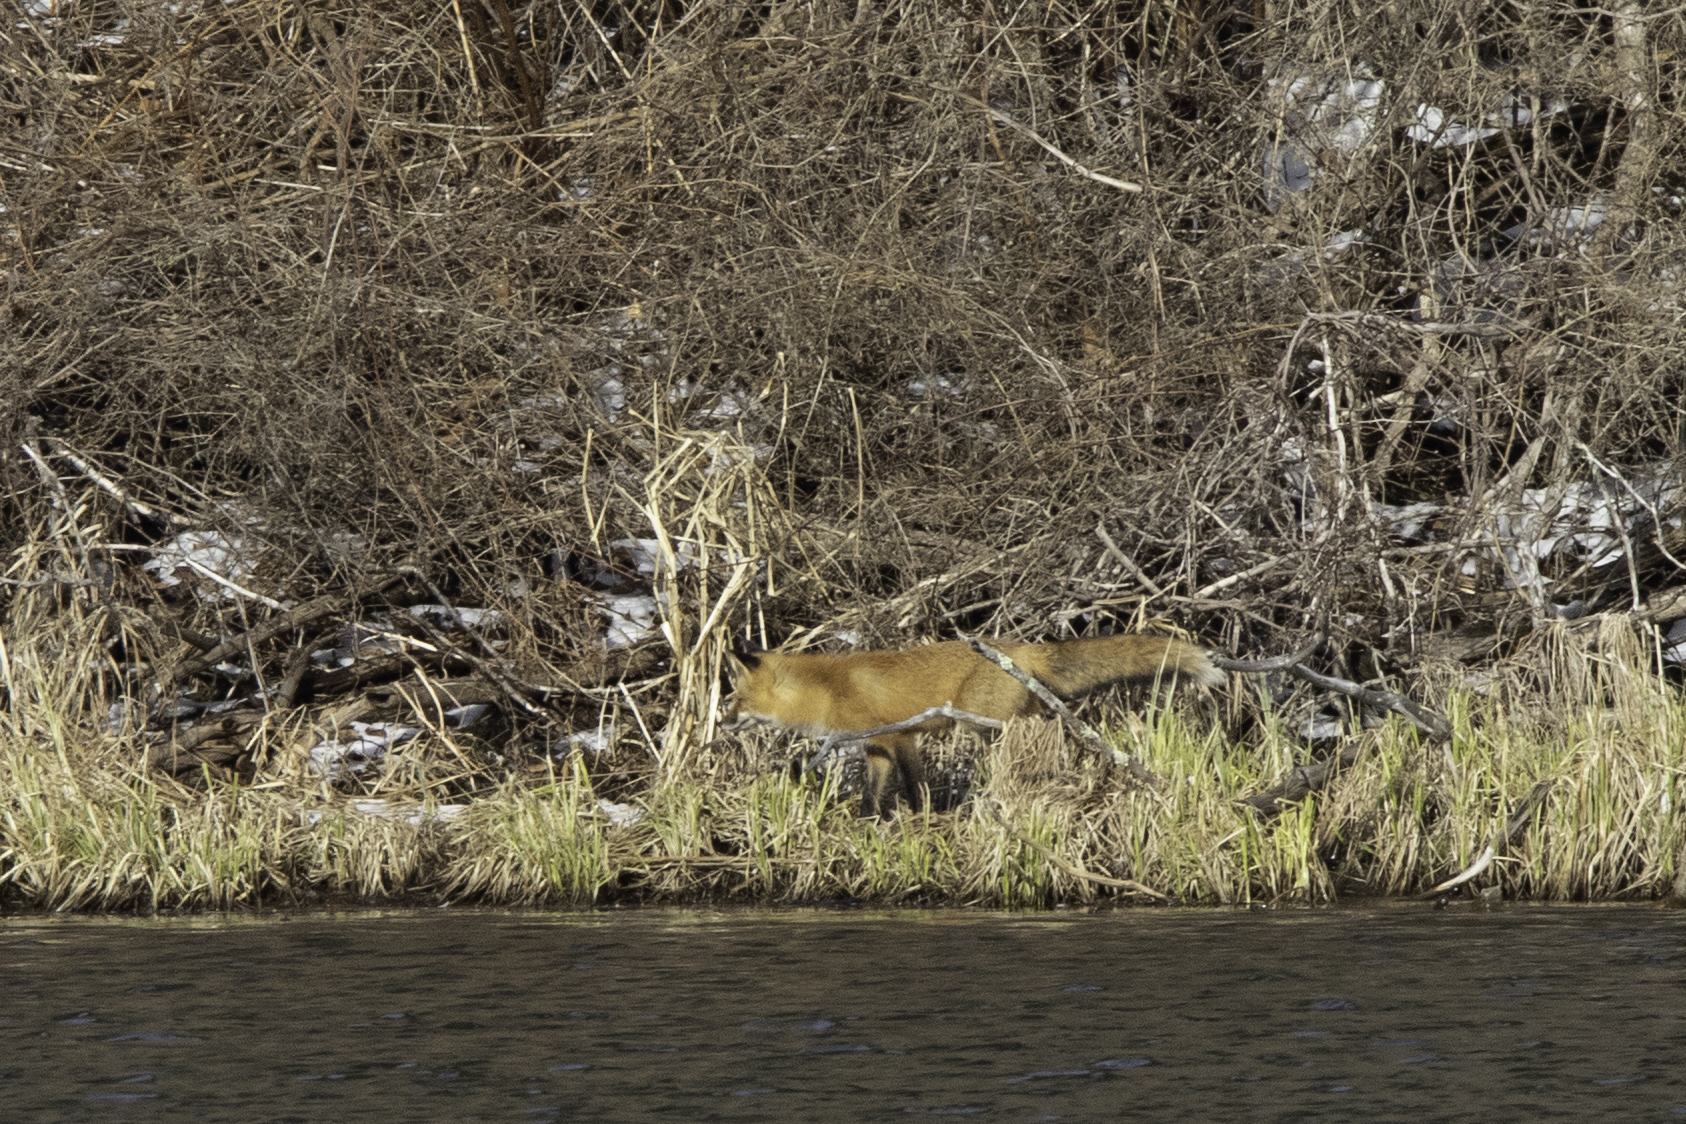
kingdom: Animalia
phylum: Chordata
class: Mammalia
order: Carnivora
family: Canidae
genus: Vulpes
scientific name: Vulpes vulpes
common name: Red fox
